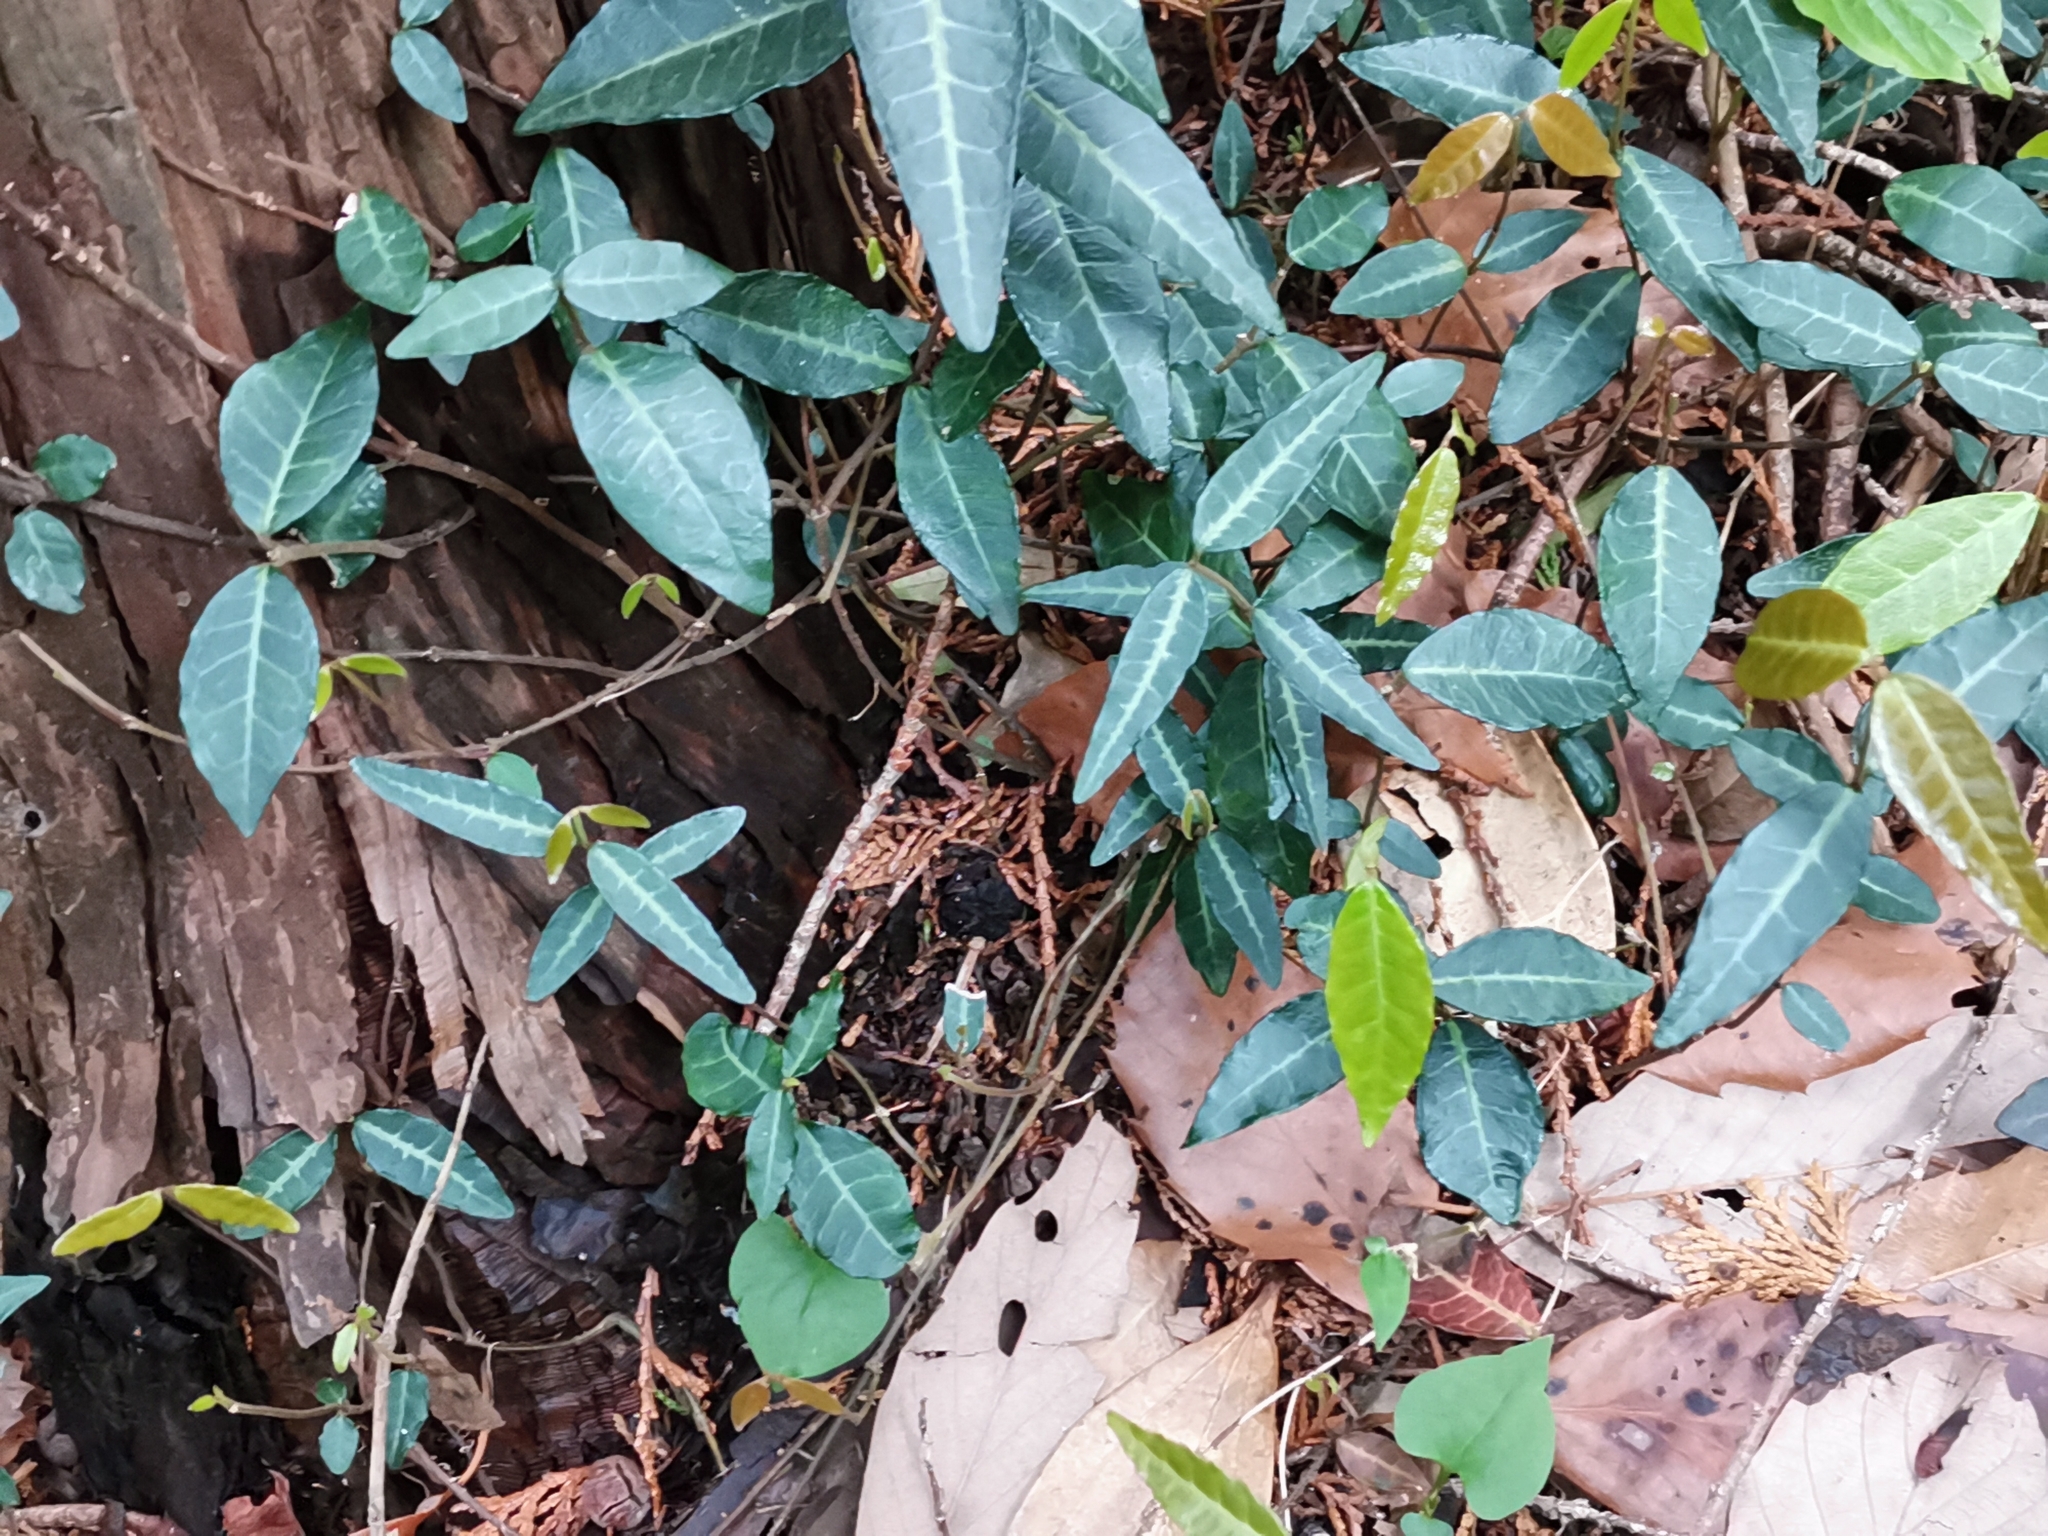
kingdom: Plantae
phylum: Tracheophyta
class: Magnoliopsida
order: Gentianales
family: Apocynaceae
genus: Trachelospermum
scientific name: Trachelospermum asiaticum
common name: Asiatic jasmine
